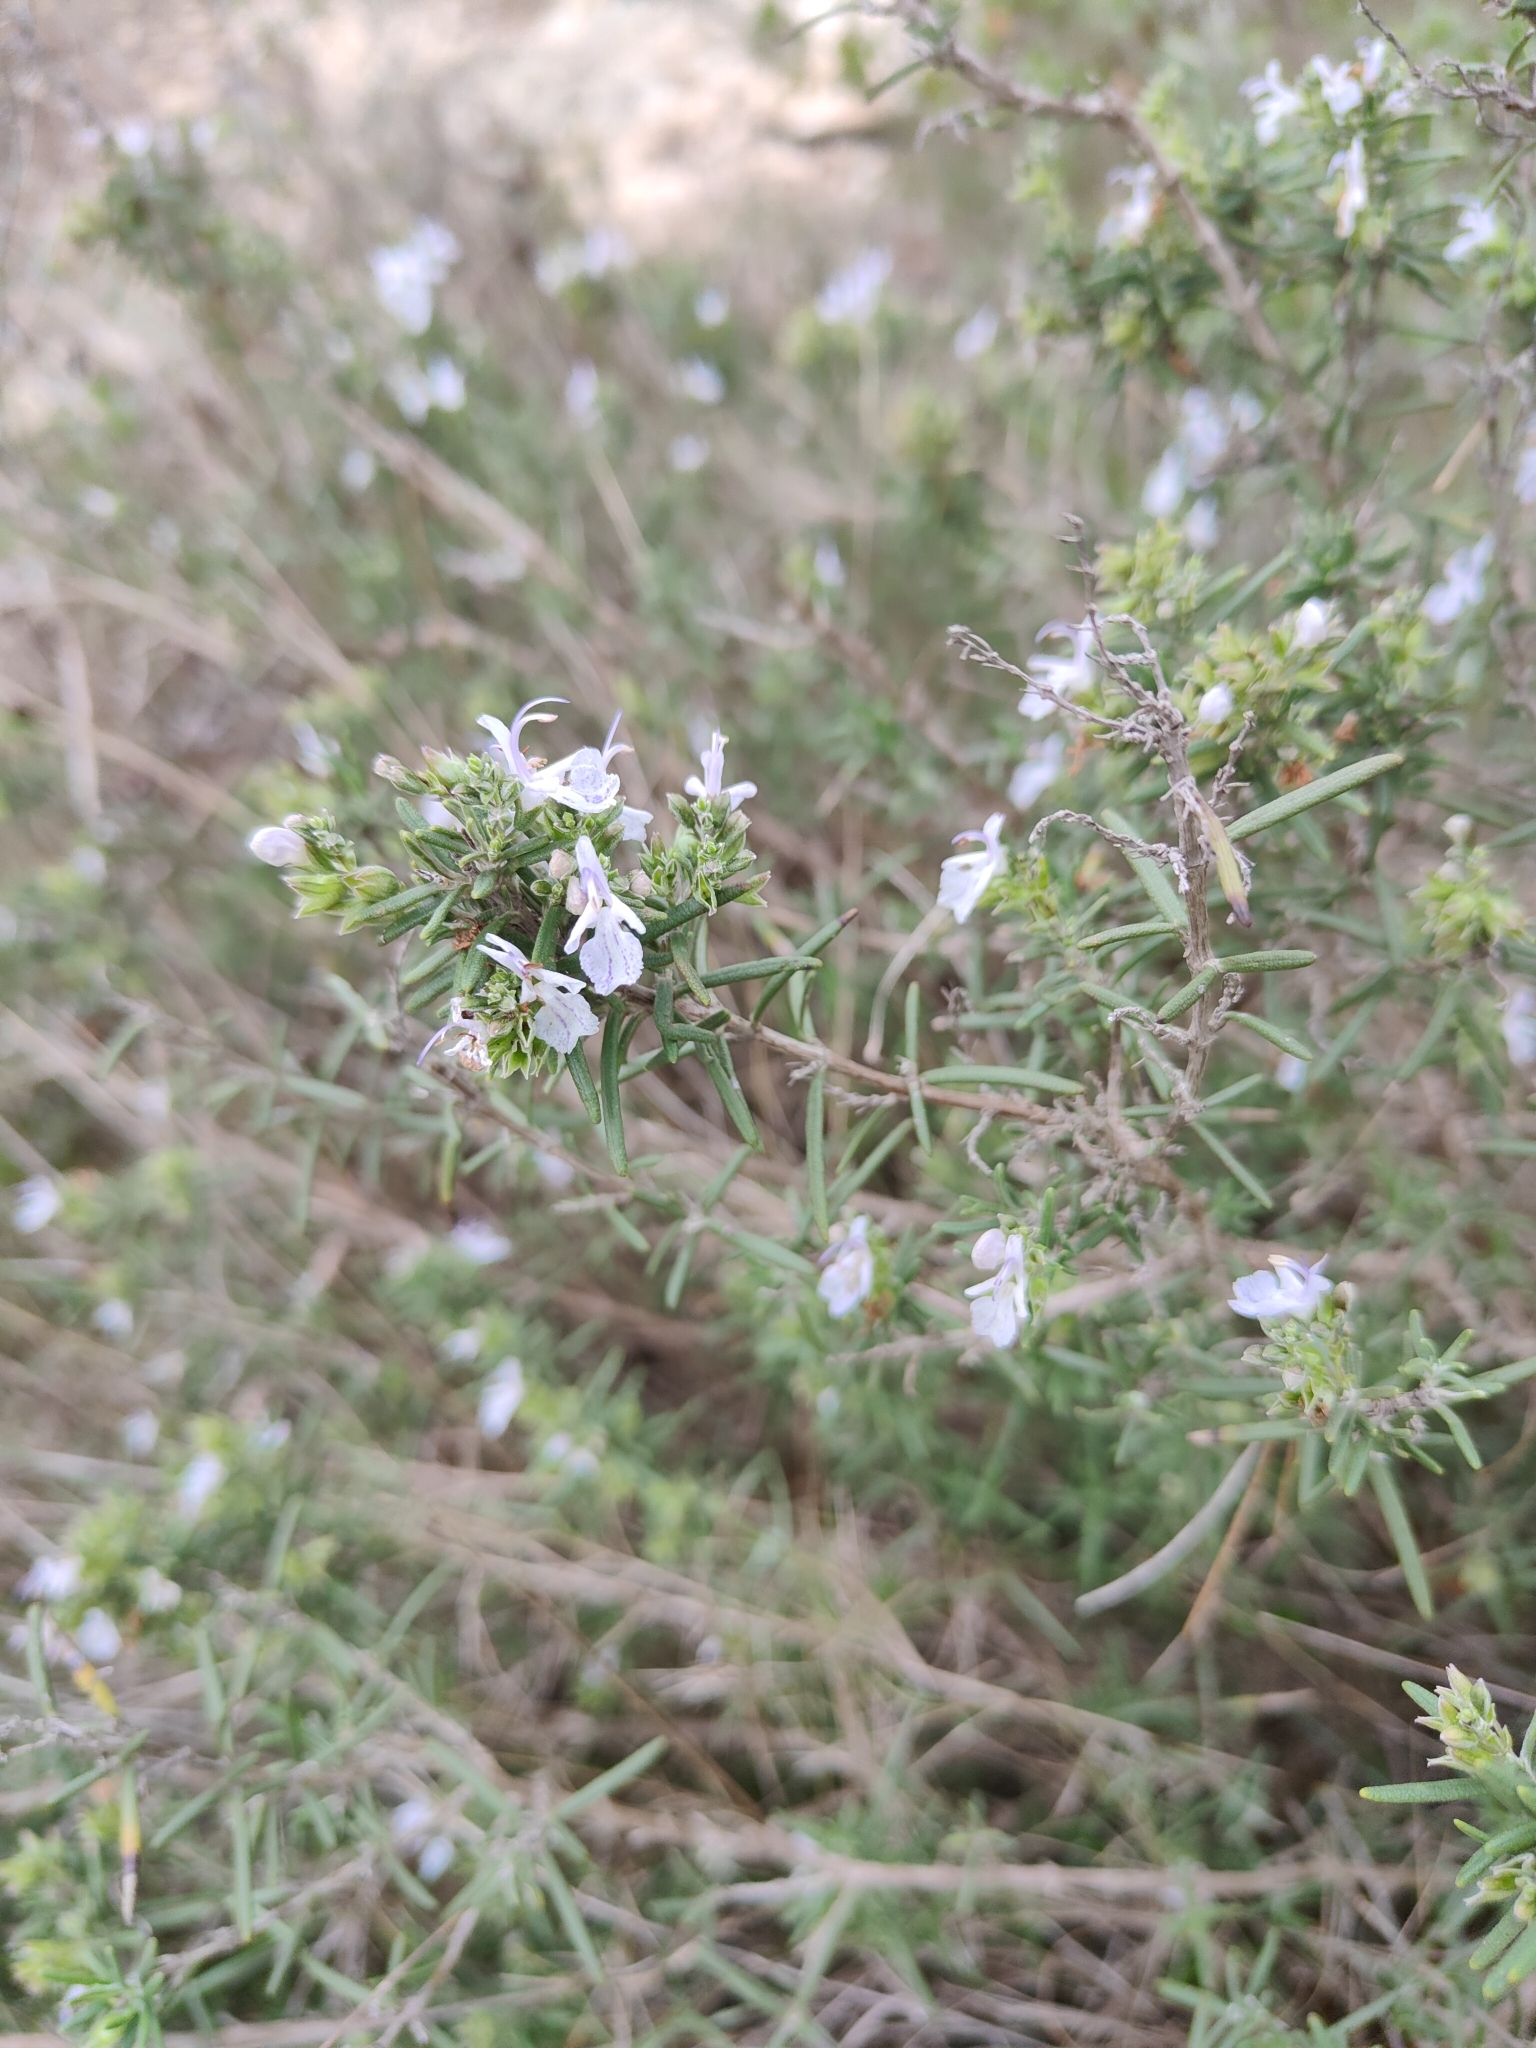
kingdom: Plantae
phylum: Tracheophyta
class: Magnoliopsida
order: Lamiales
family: Lamiaceae
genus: Salvia
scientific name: Salvia rosmarinus
